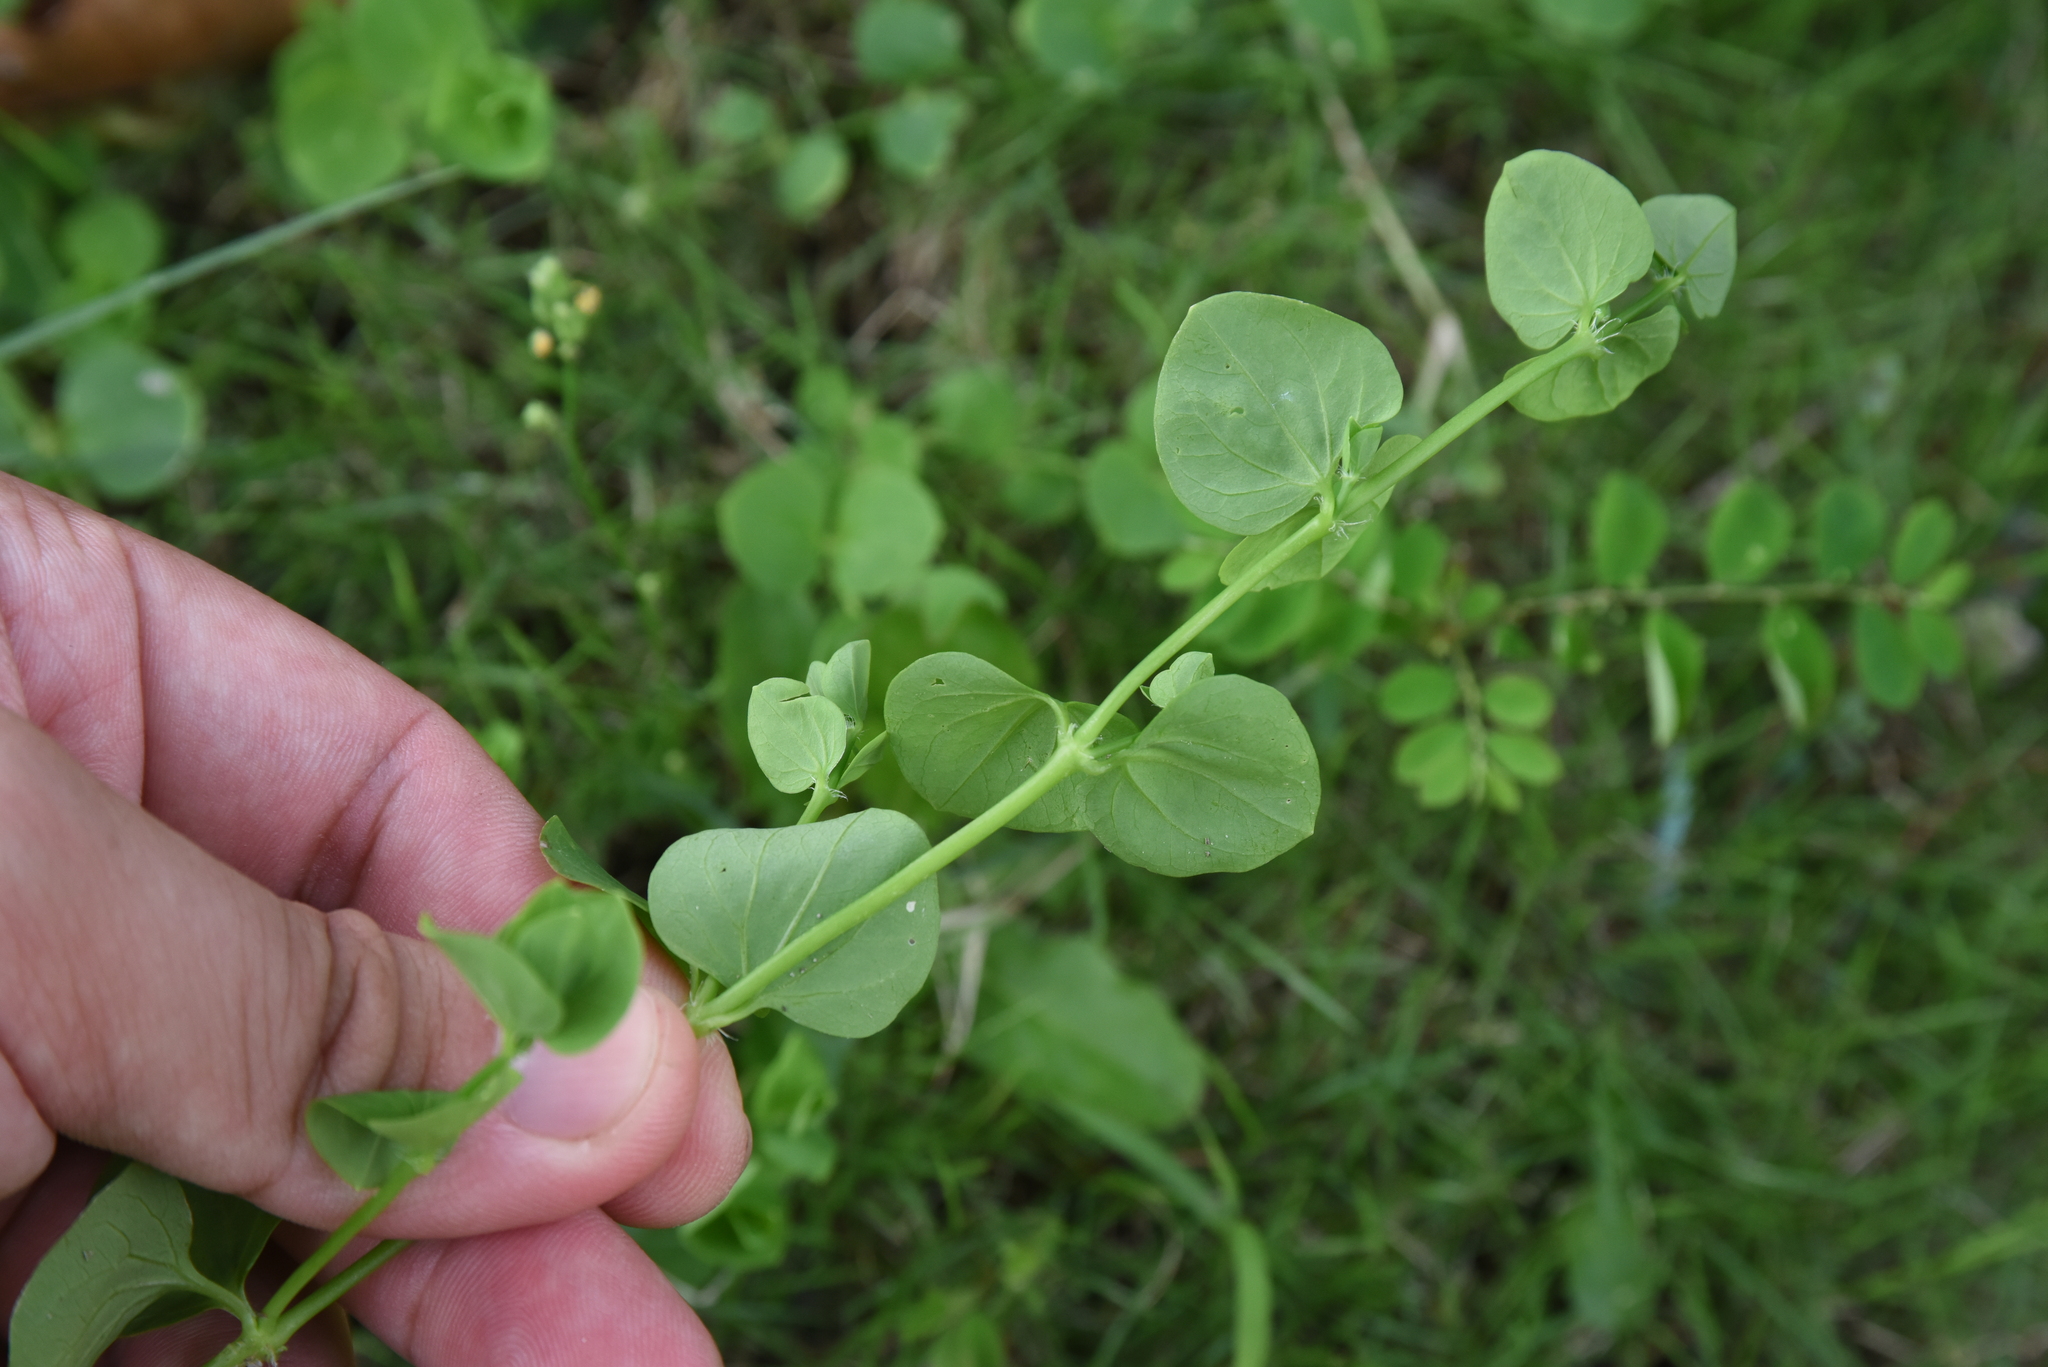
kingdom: Plantae
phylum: Tracheophyta
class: Magnoliopsida
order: Caryophyllales
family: Caryophyllaceae
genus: Drymaria
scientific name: Drymaria cordata
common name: Whitesnow
